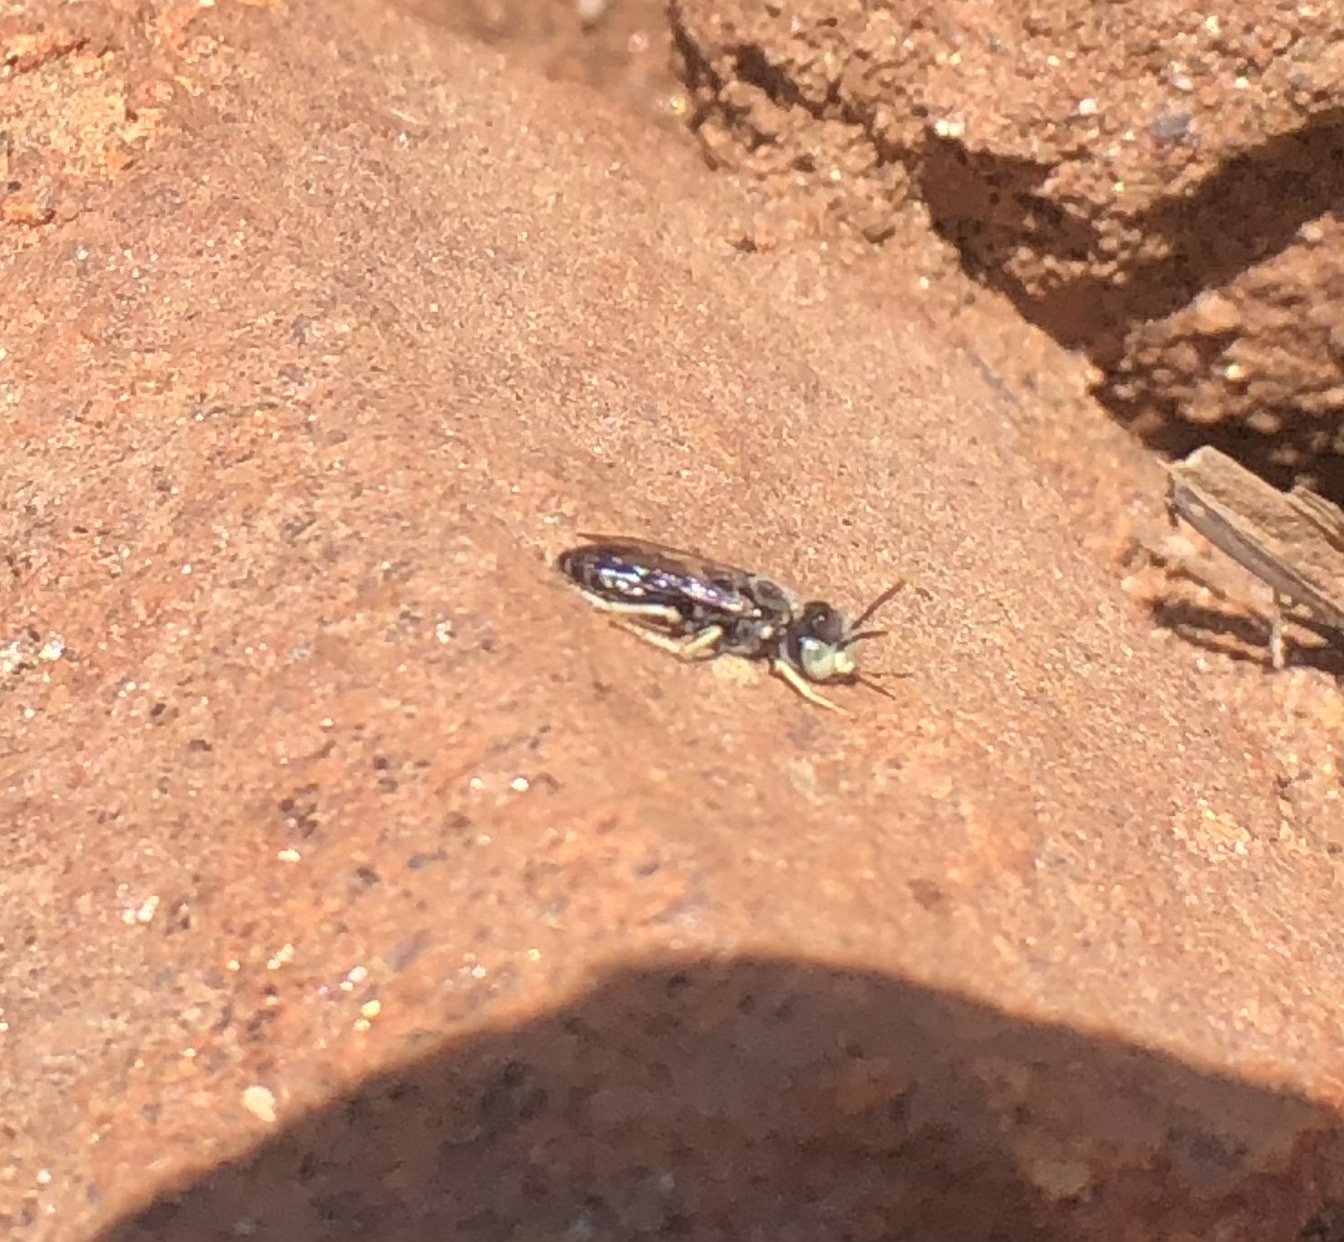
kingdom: Animalia
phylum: Arthropoda
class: Insecta
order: Hymenoptera
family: Andrenidae
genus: Calliopsis
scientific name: Calliopsis rhodophila
